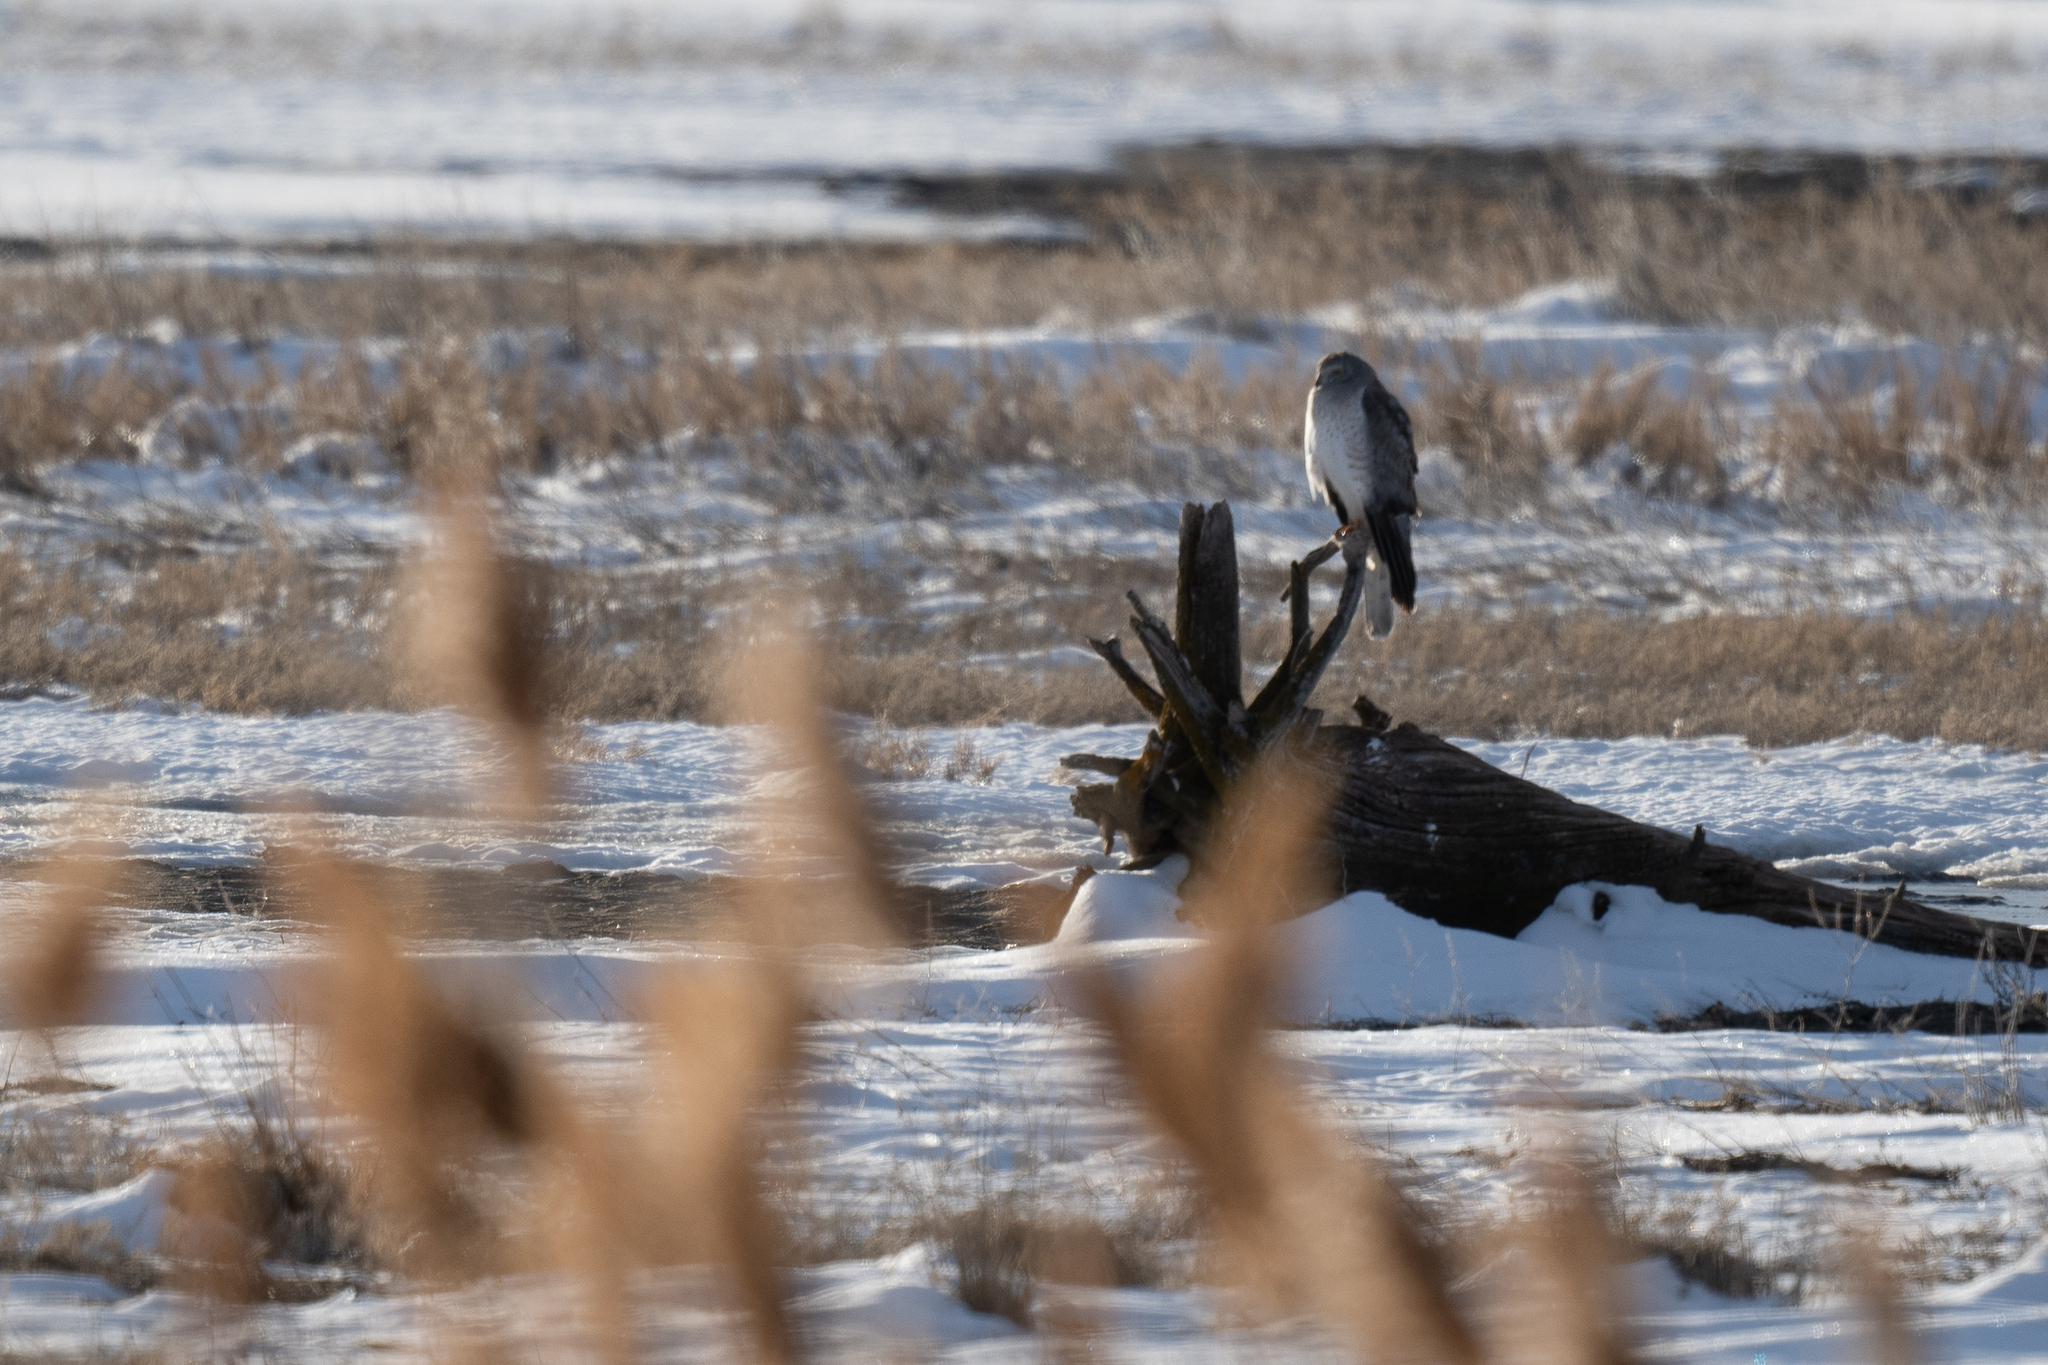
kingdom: Animalia
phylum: Chordata
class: Aves
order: Accipitriformes
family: Accipitridae
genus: Circus
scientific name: Circus cyaneus
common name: Hen harrier
